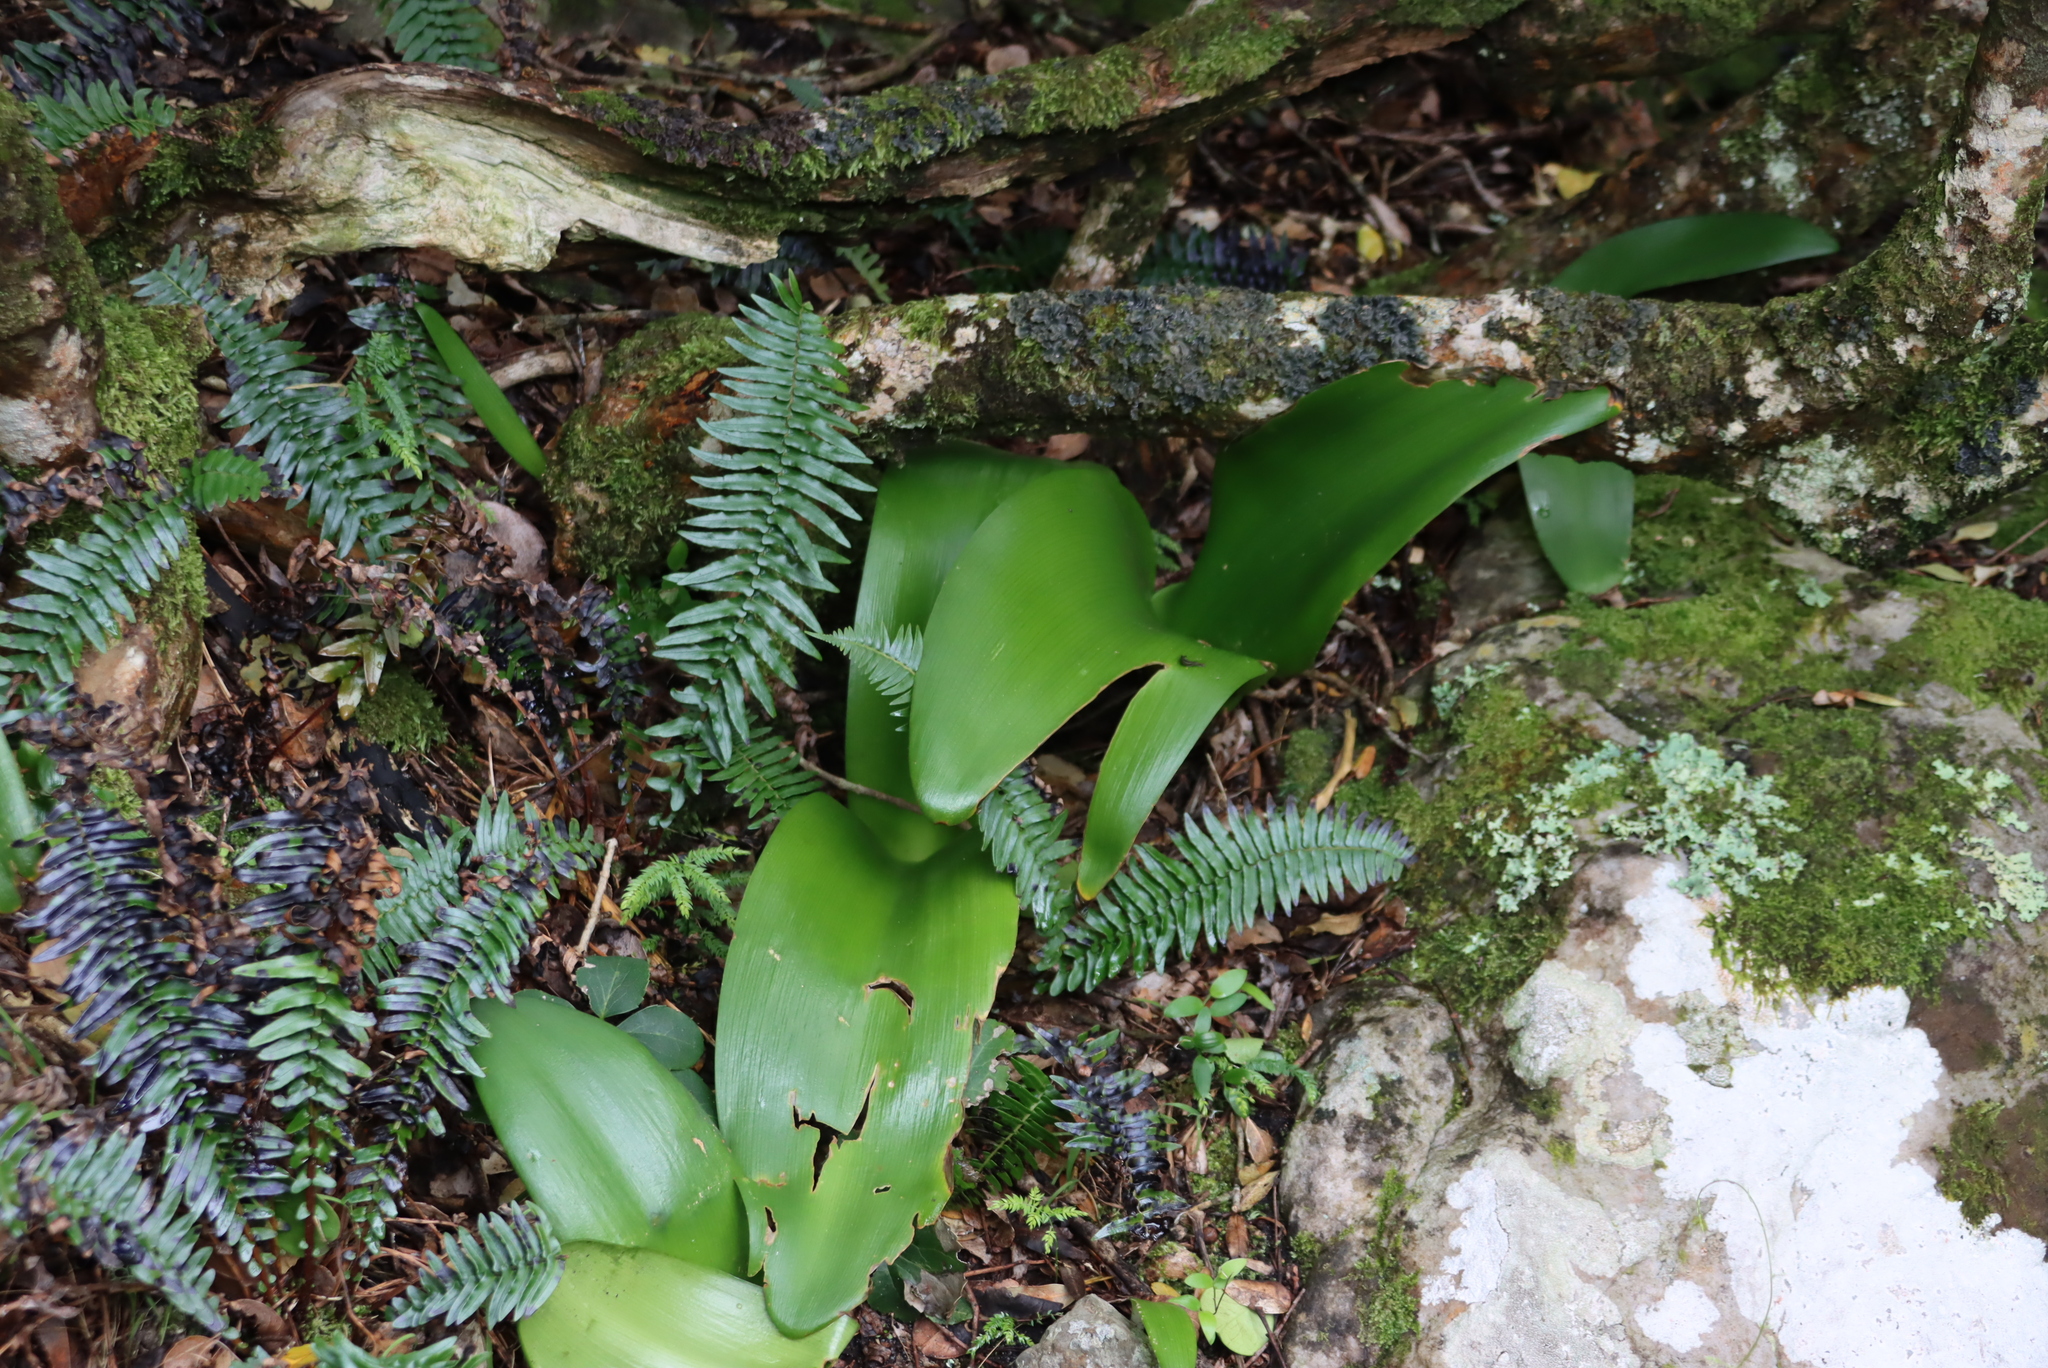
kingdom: Plantae
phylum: Tracheophyta
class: Liliopsida
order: Asparagales
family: Amaryllidaceae
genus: Haemanthus
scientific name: Haemanthus coccineus
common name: Cape-tulip
